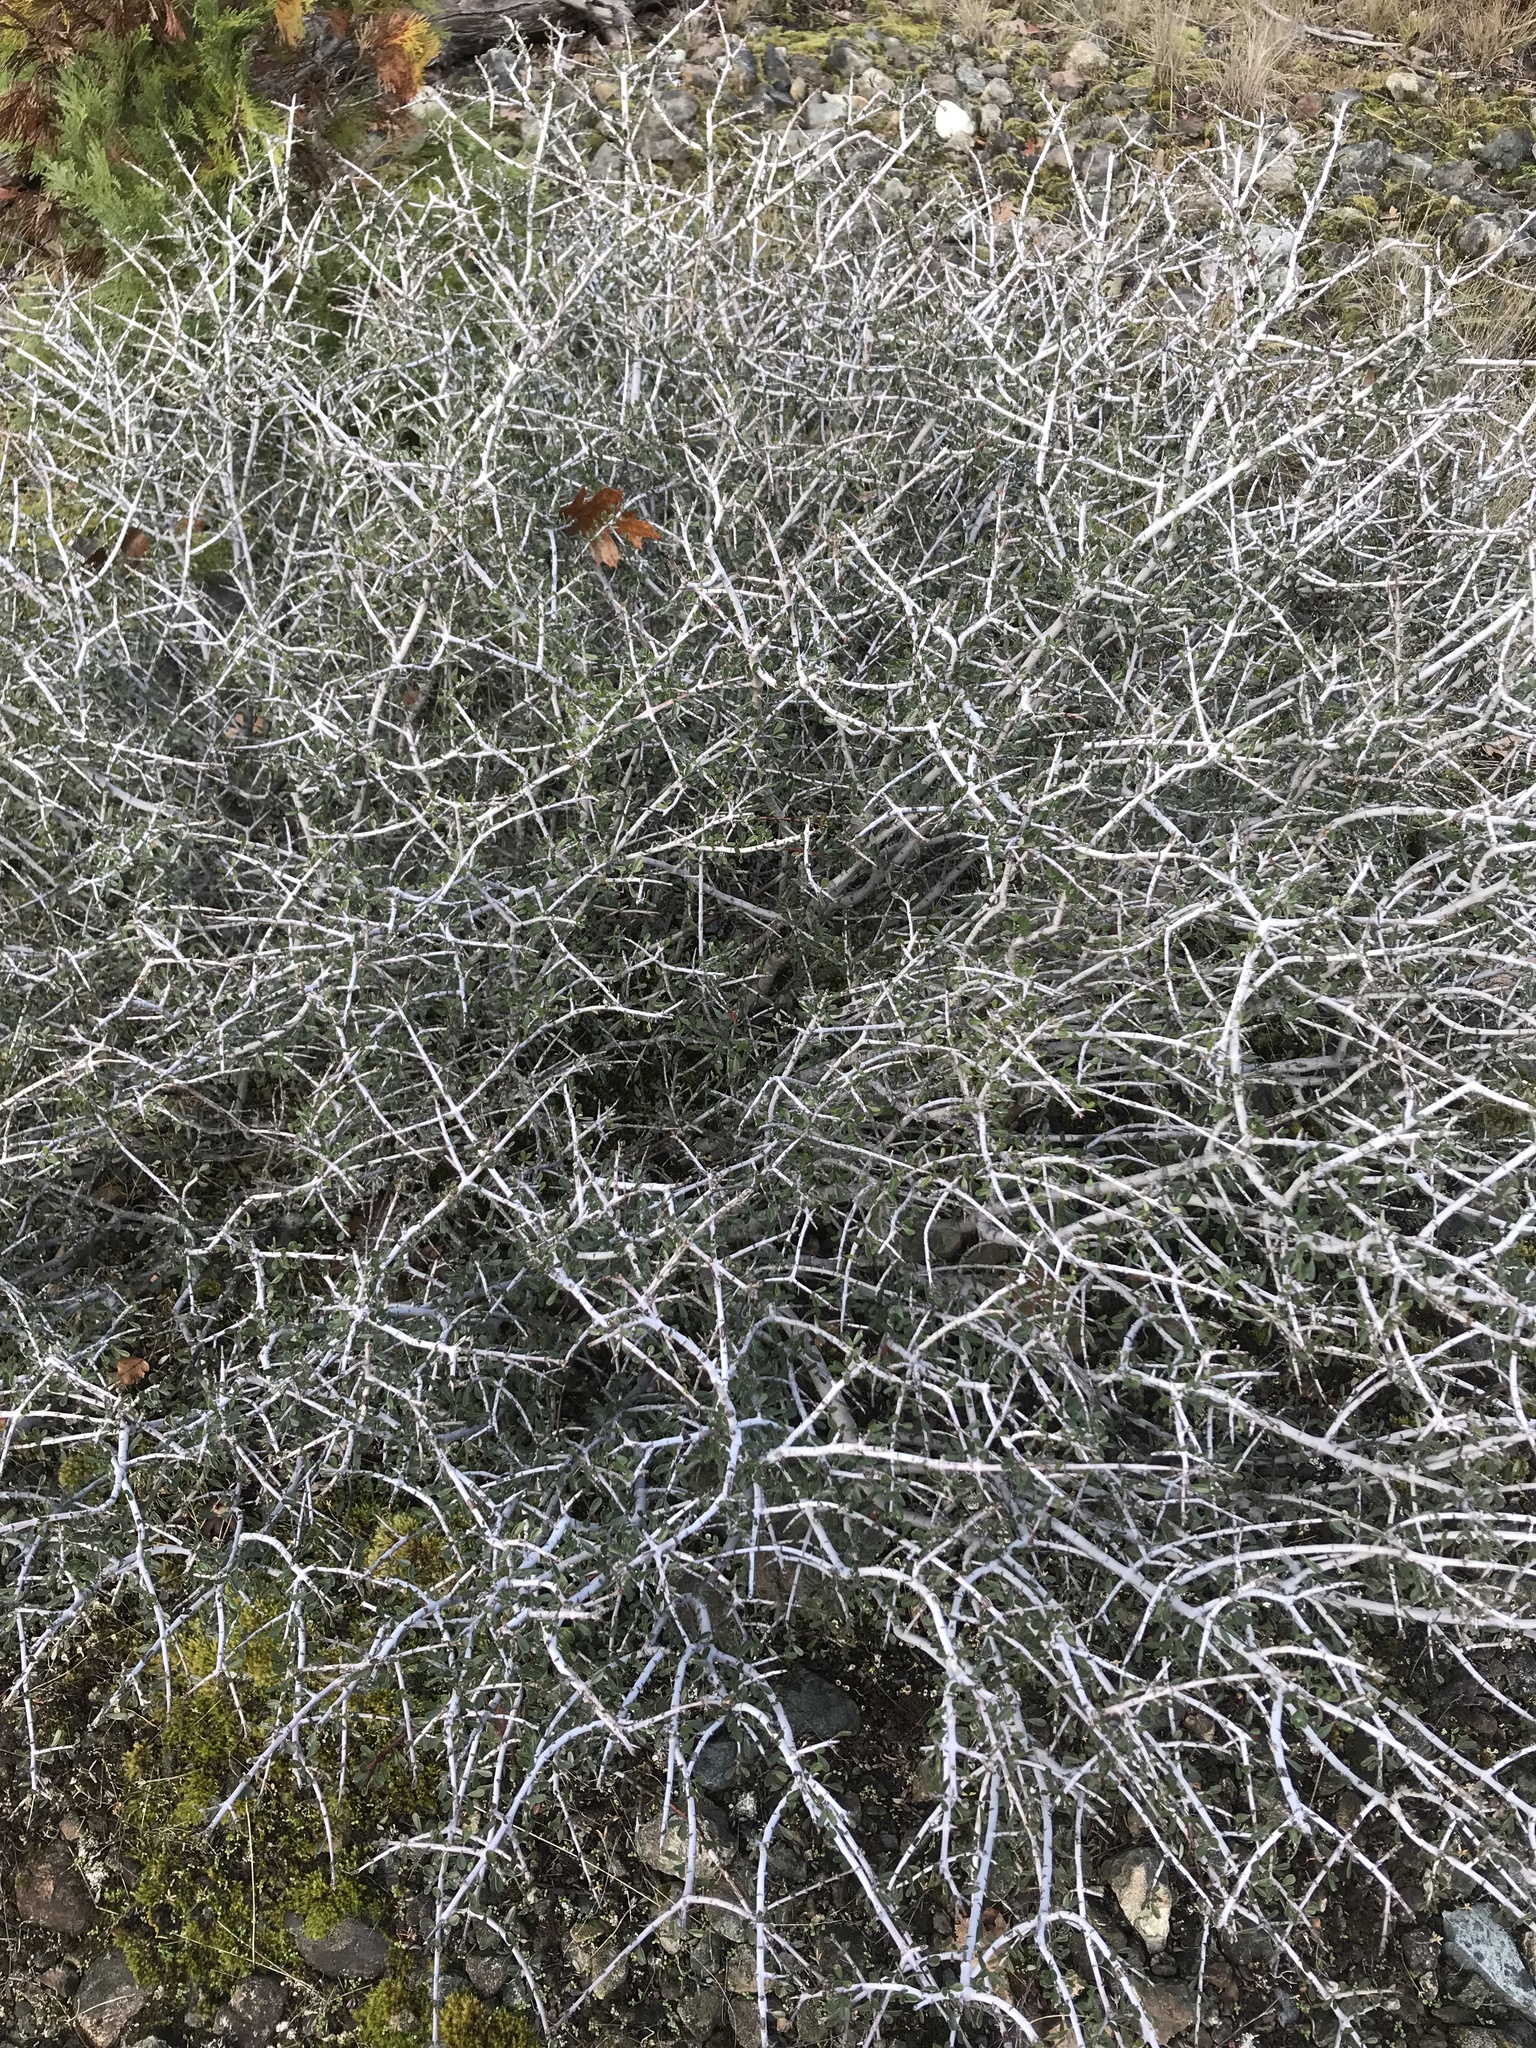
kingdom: Plantae
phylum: Tracheophyta
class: Magnoliopsida
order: Rosales
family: Rhamnaceae
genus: Ceanothus
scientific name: Ceanothus cuneatus
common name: Cuneate ceanothus
